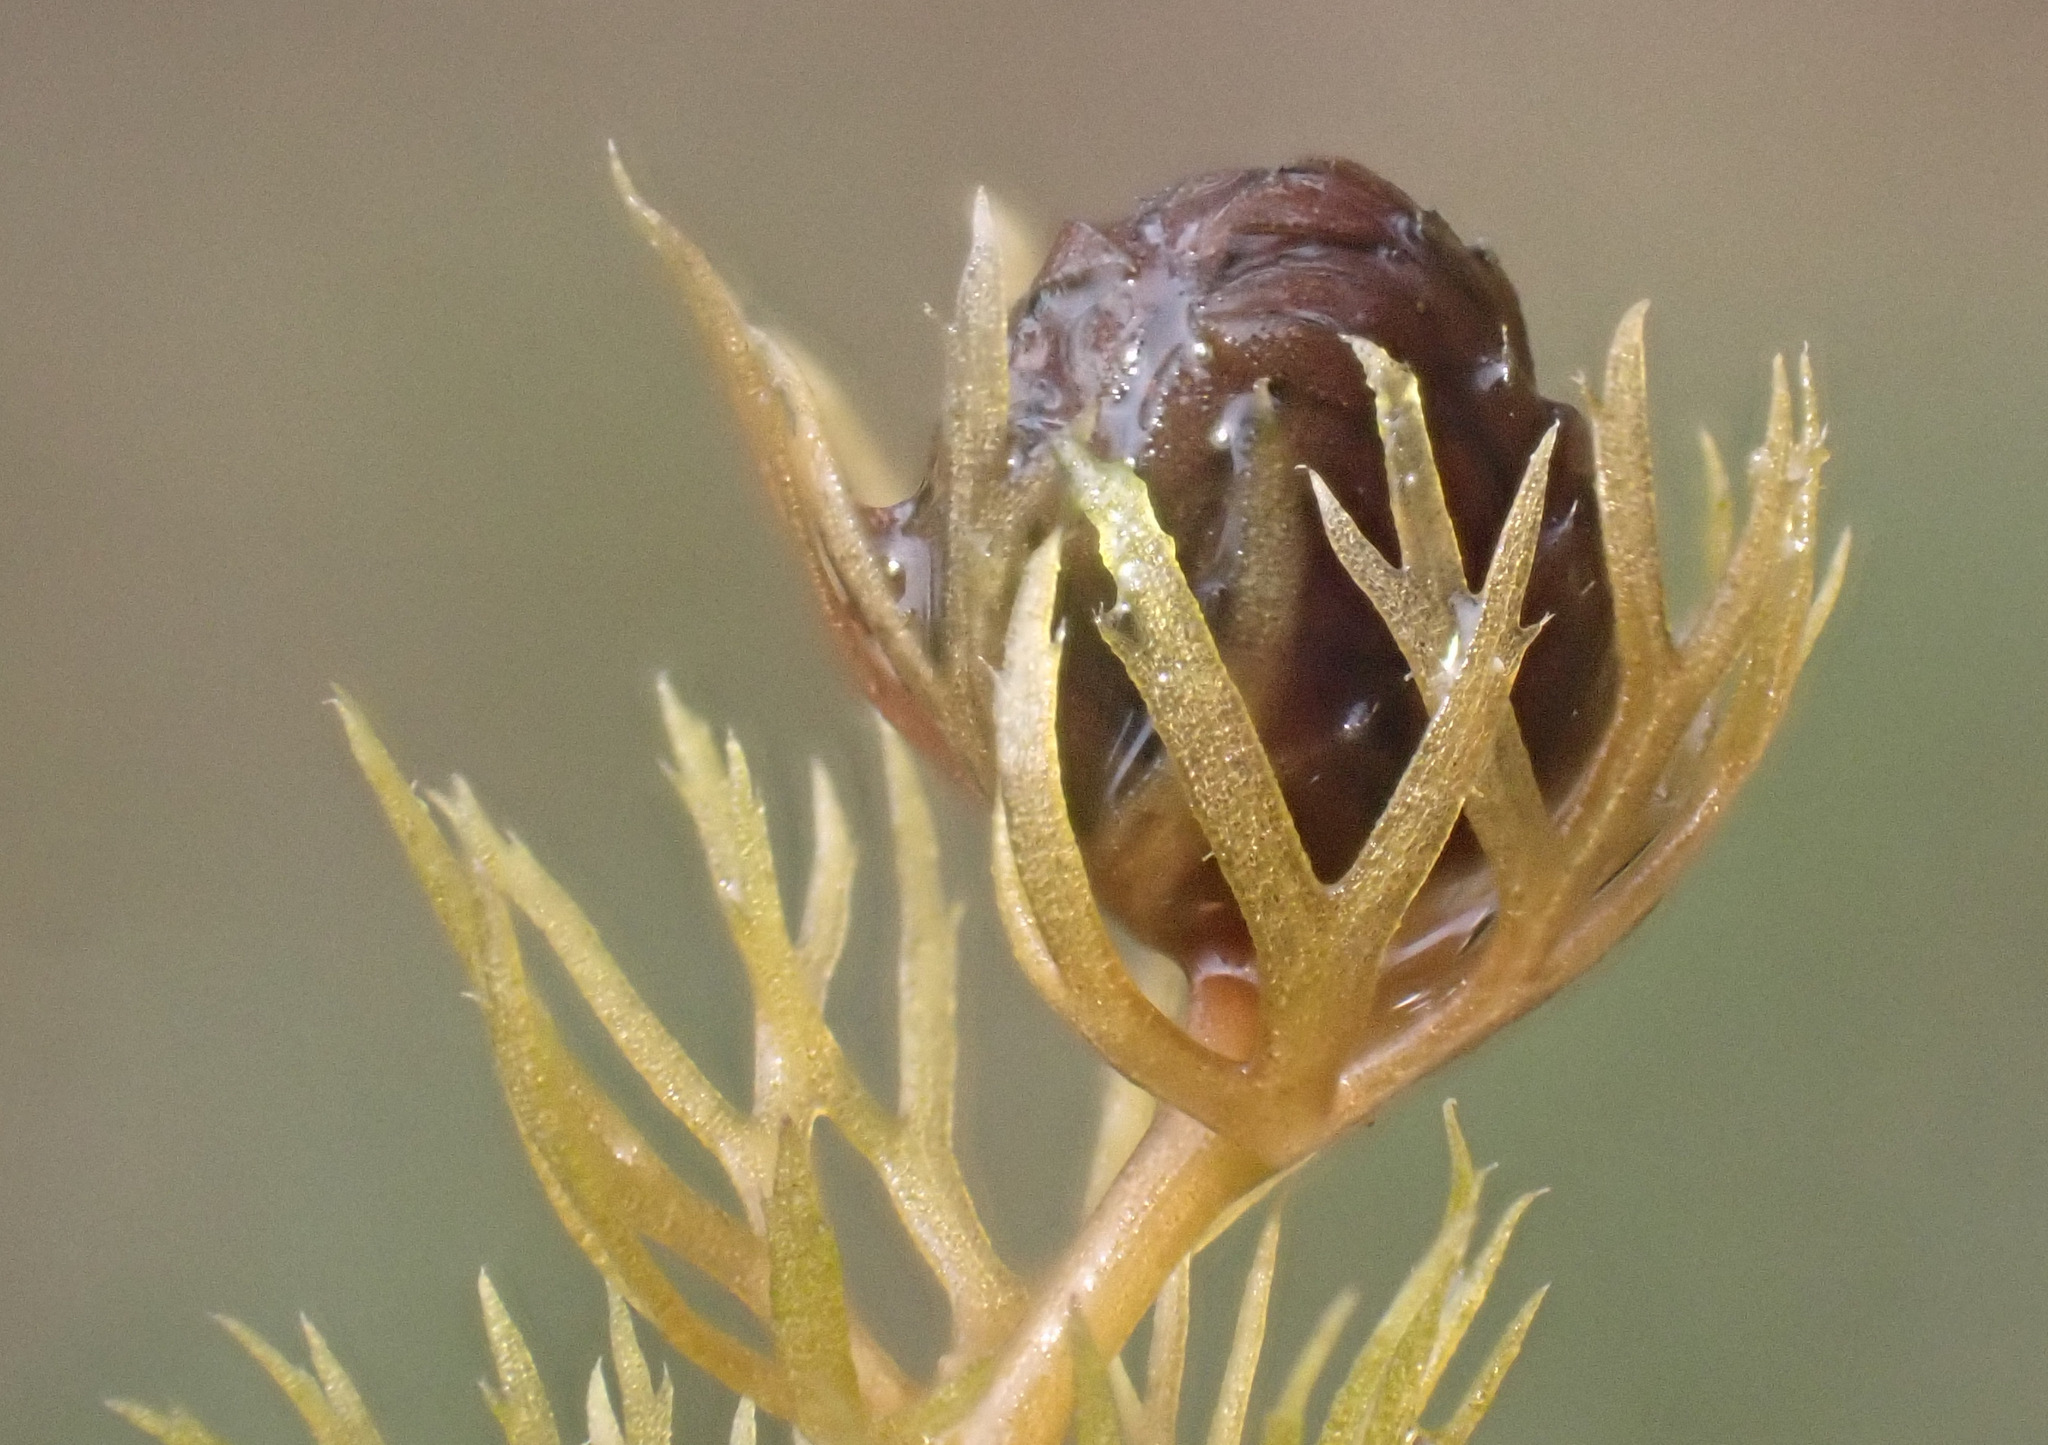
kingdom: Plantae
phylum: Tracheophyta
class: Magnoliopsida
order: Lamiales
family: Lentibulariaceae
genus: Utricularia
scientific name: Utricularia minor
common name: Lesser bladderwort
